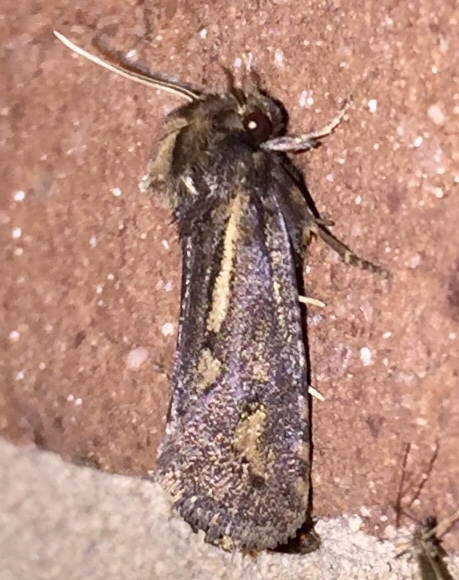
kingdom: Animalia
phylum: Arthropoda
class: Insecta
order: Lepidoptera
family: Tineidae
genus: Acrolophus
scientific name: Acrolophus popeanella
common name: Clemens' grass tubeworm moth
